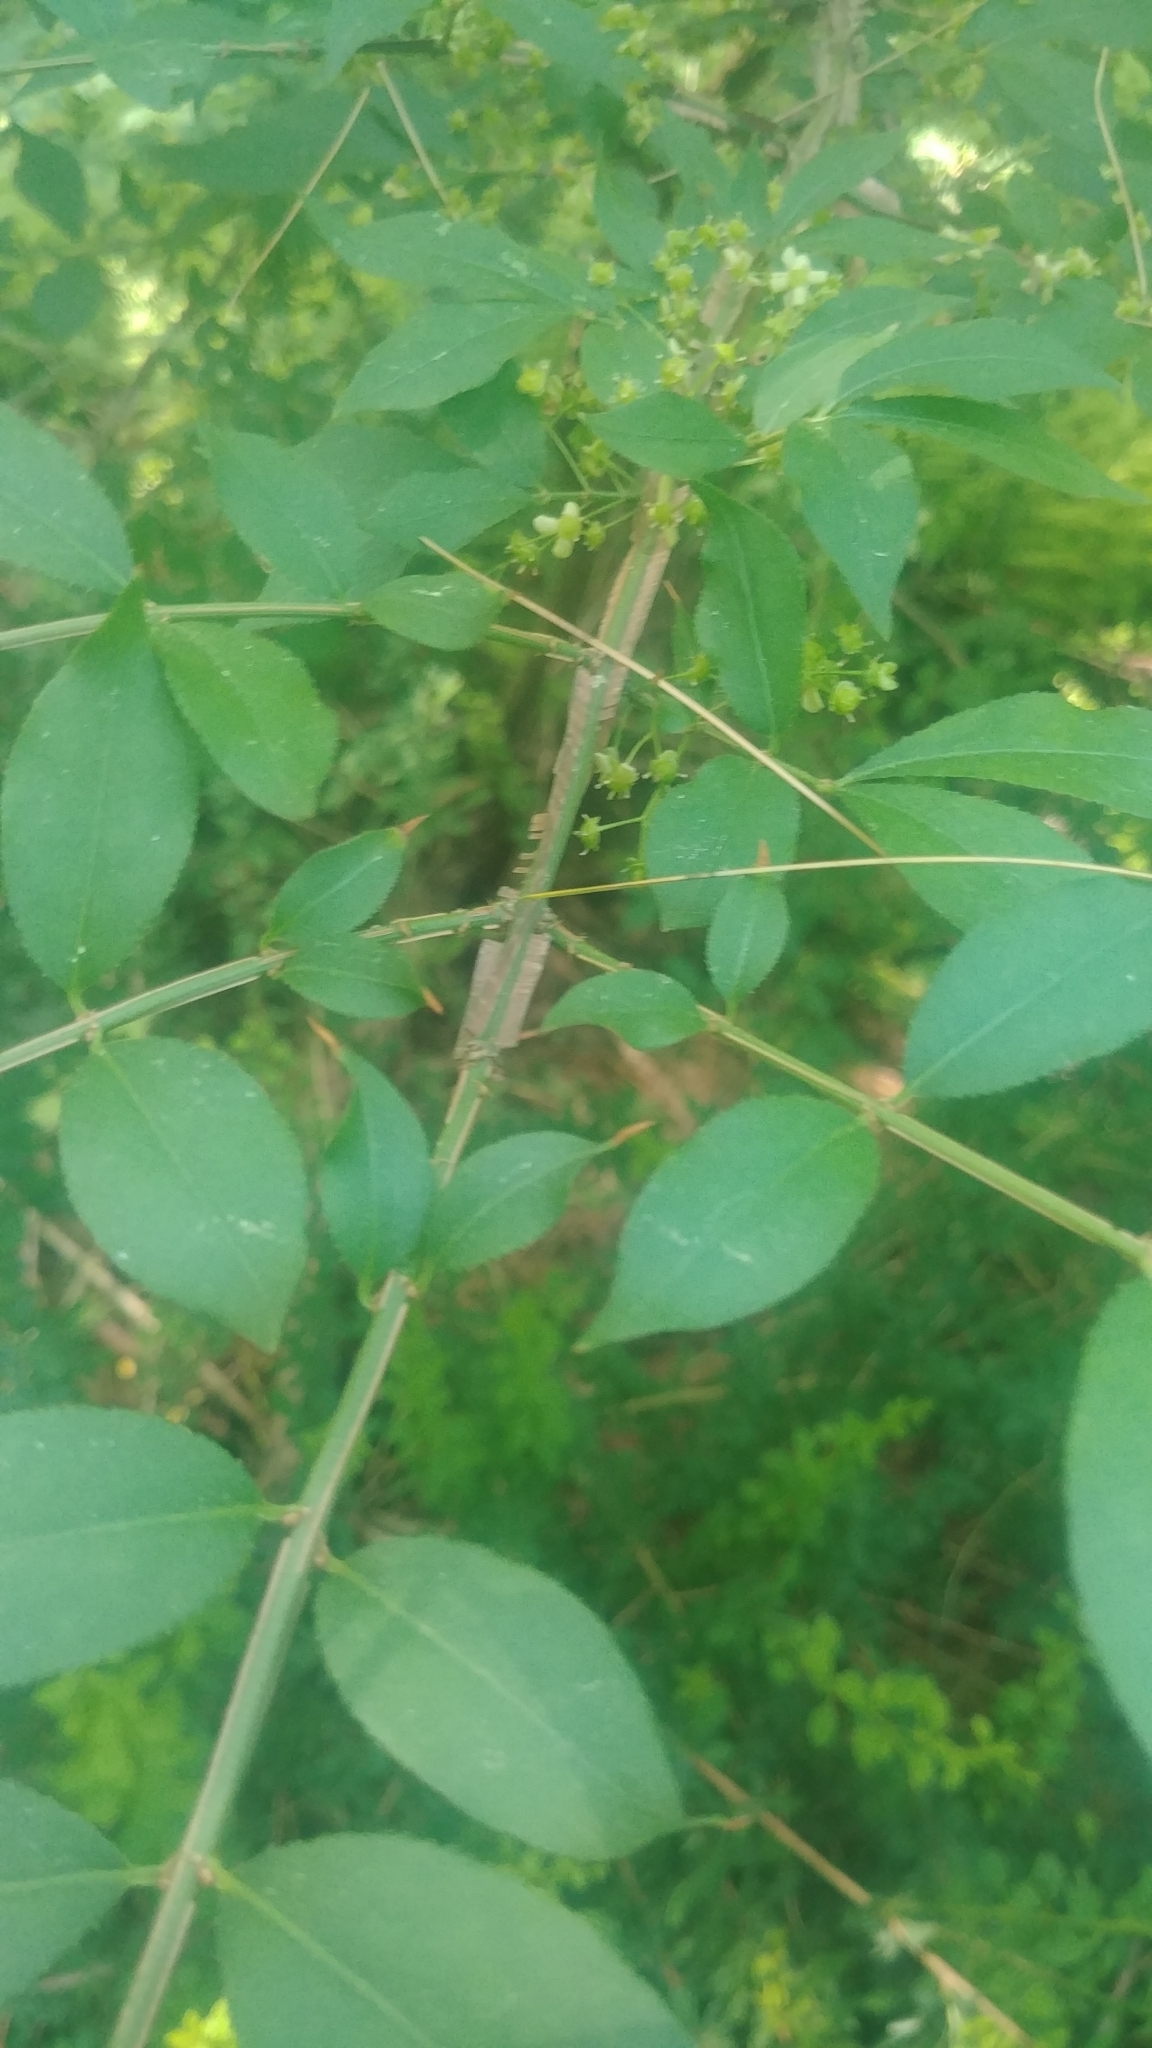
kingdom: Plantae
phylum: Tracheophyta
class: Magnoliopsida
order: Celastrales
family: Celastraceae
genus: Euonymus
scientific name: Euonymus alatus
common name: Winged euonymus
